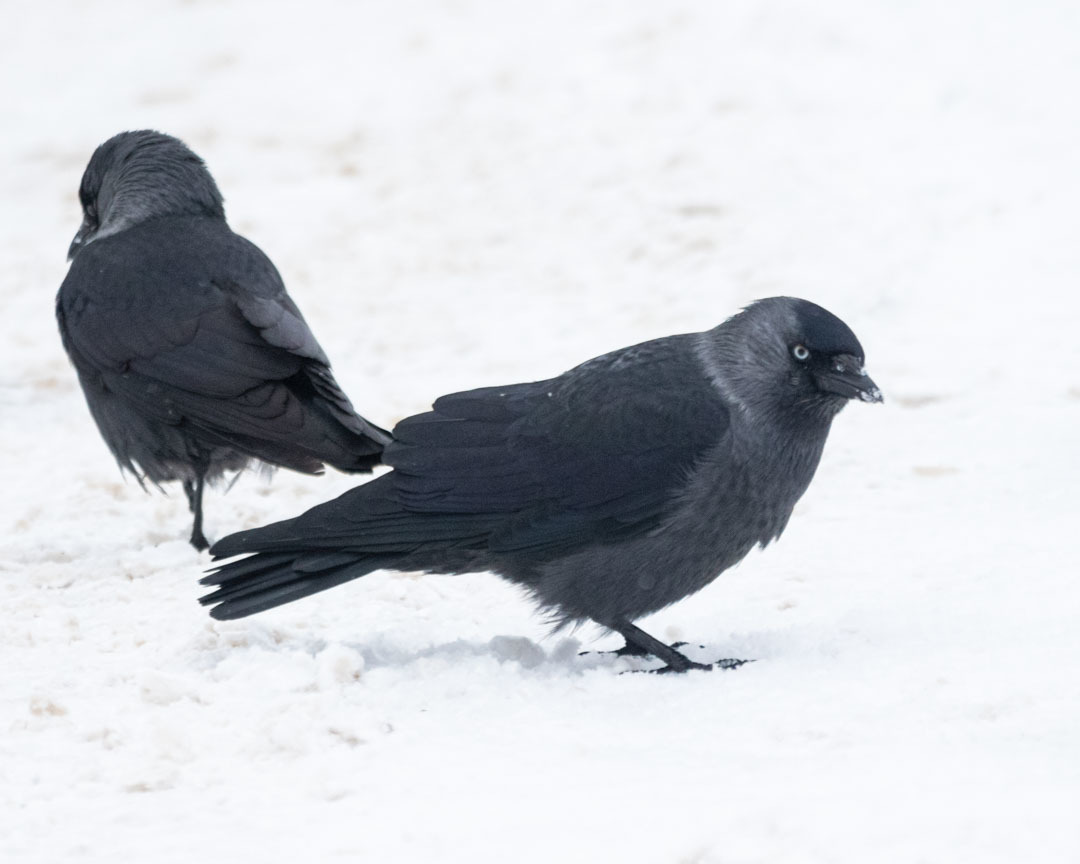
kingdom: Animalia
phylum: Chordata
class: Aves
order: Passeriformes
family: Corvidae
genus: Coloeus
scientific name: Coloeus monedula
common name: Western jackdaw
